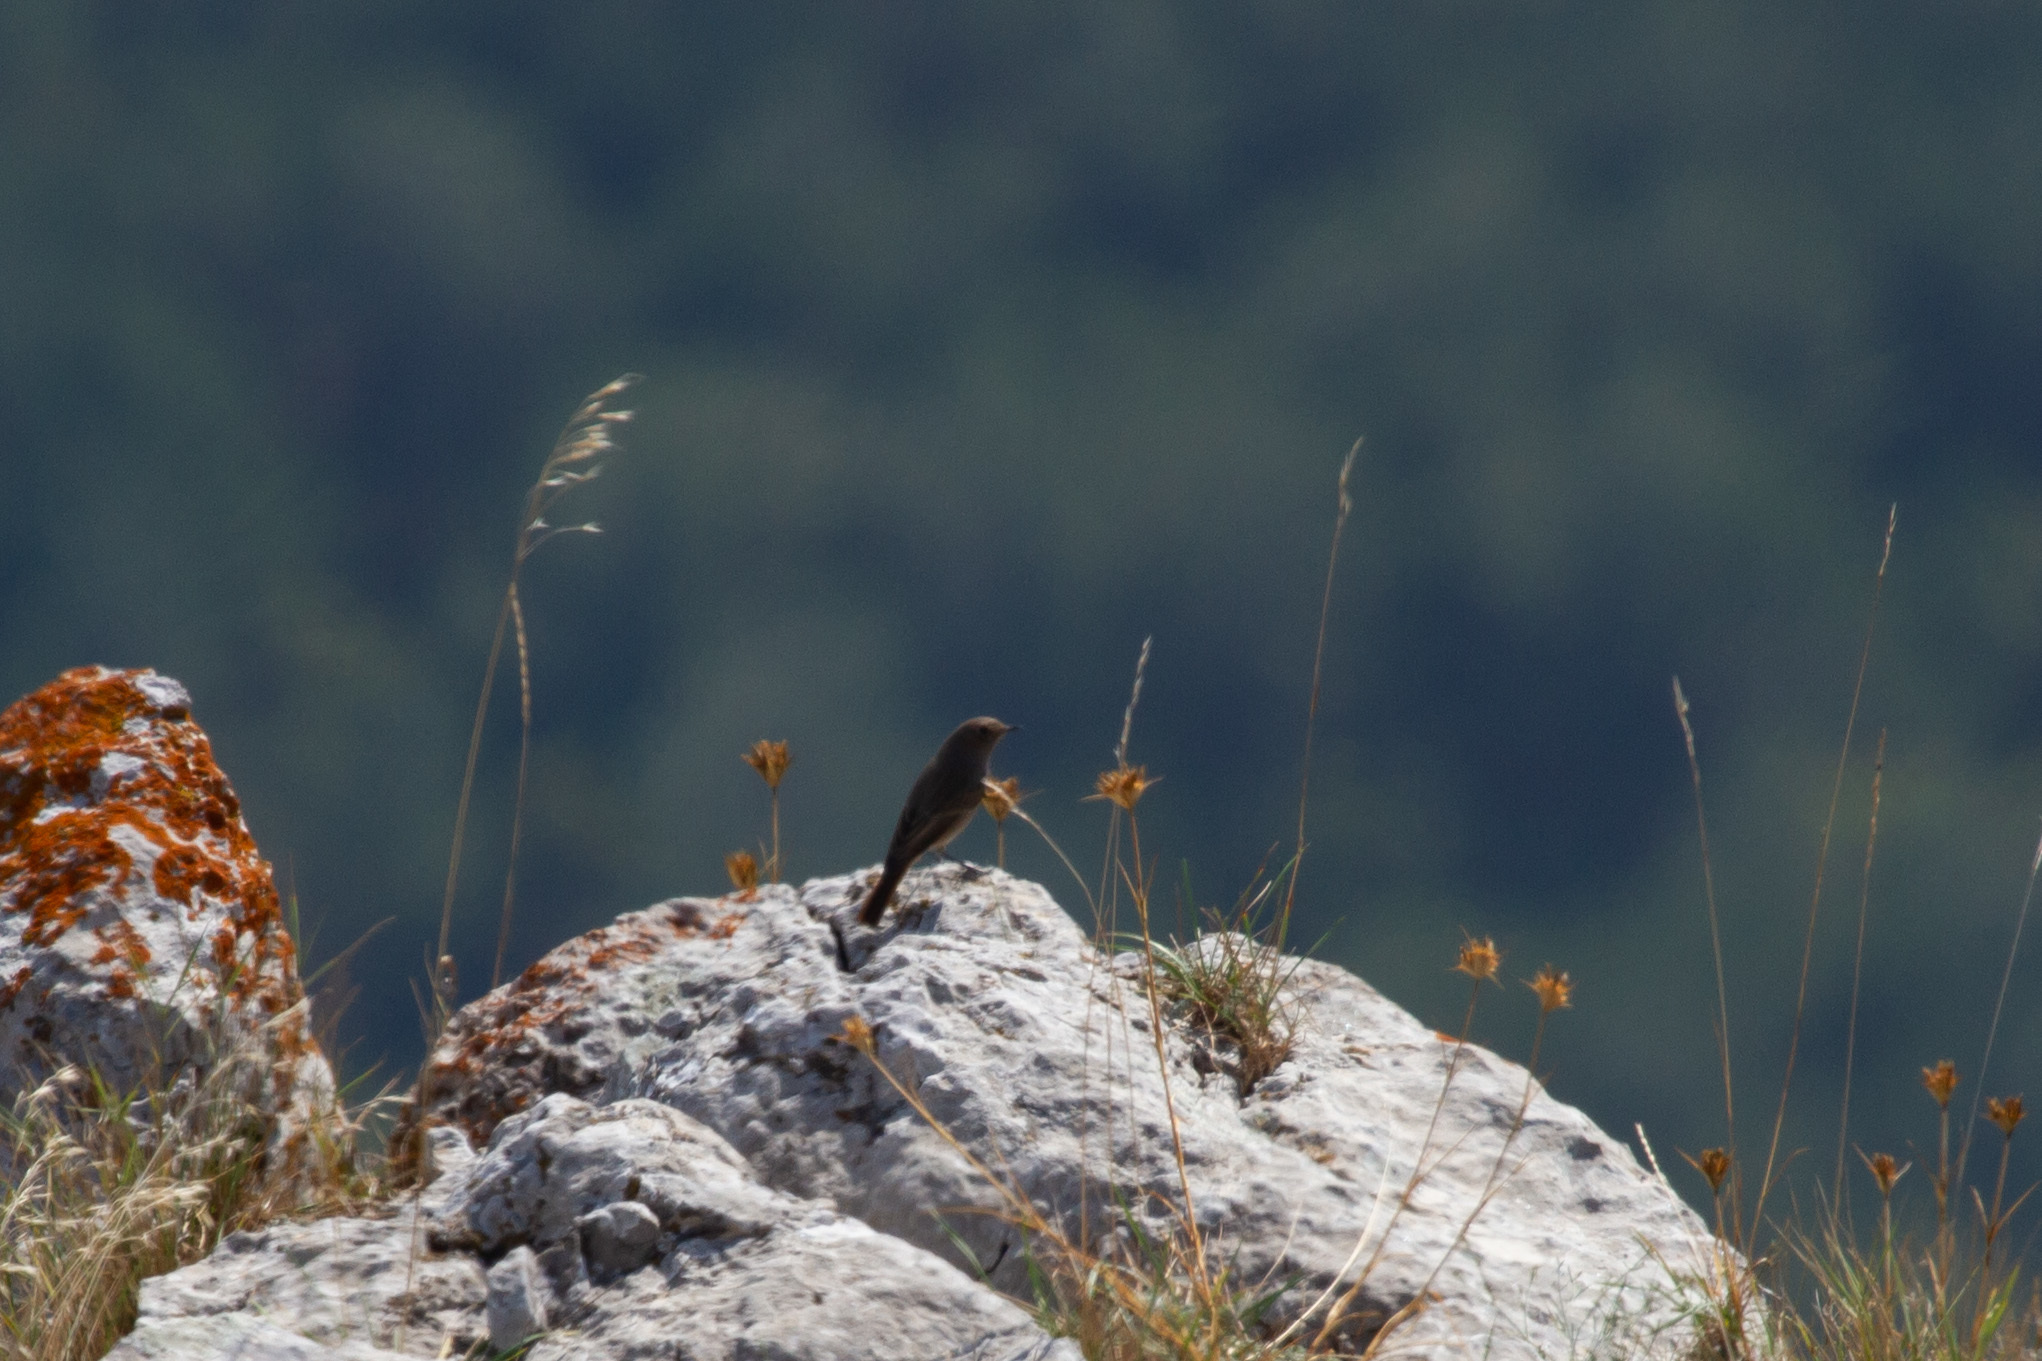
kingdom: Animalia
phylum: Chordata
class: Aves
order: Passeriformes
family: Muscicapidae
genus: Phoenicurus
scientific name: Phoenicurus ochruros
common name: Black redstart
